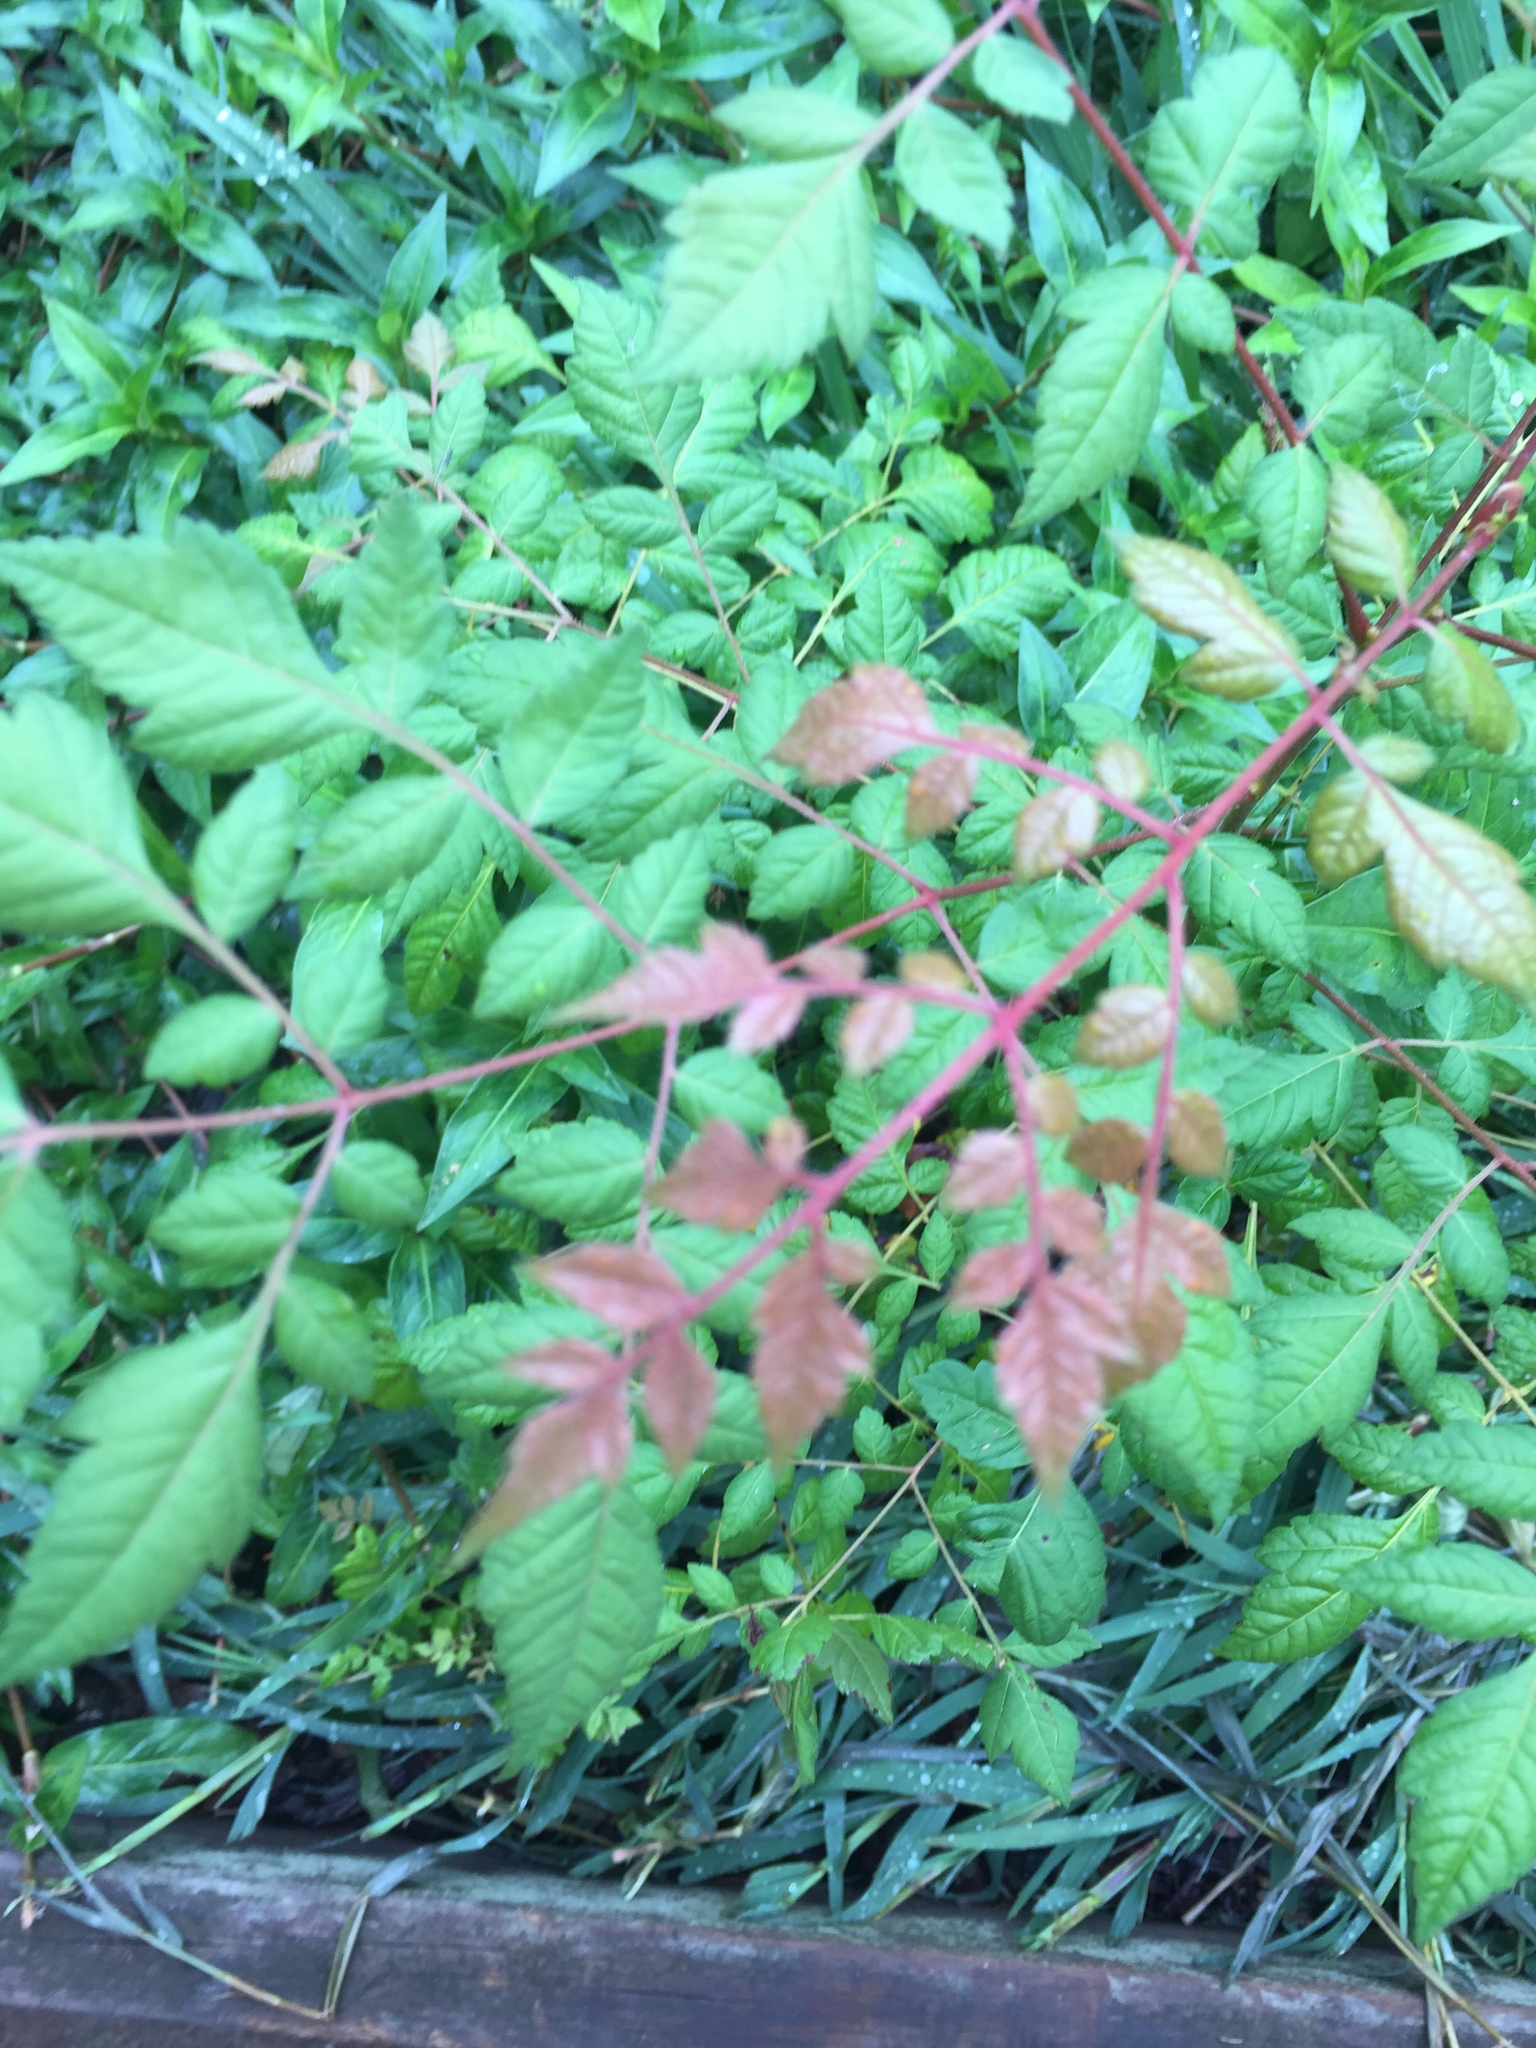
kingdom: Plantae
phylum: Tracheophyta
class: Magnoliopsida
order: Sapindales
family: Sapindaceae
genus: Koelreuteria
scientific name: Koelreuteria paniculata
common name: Pride-of-india
